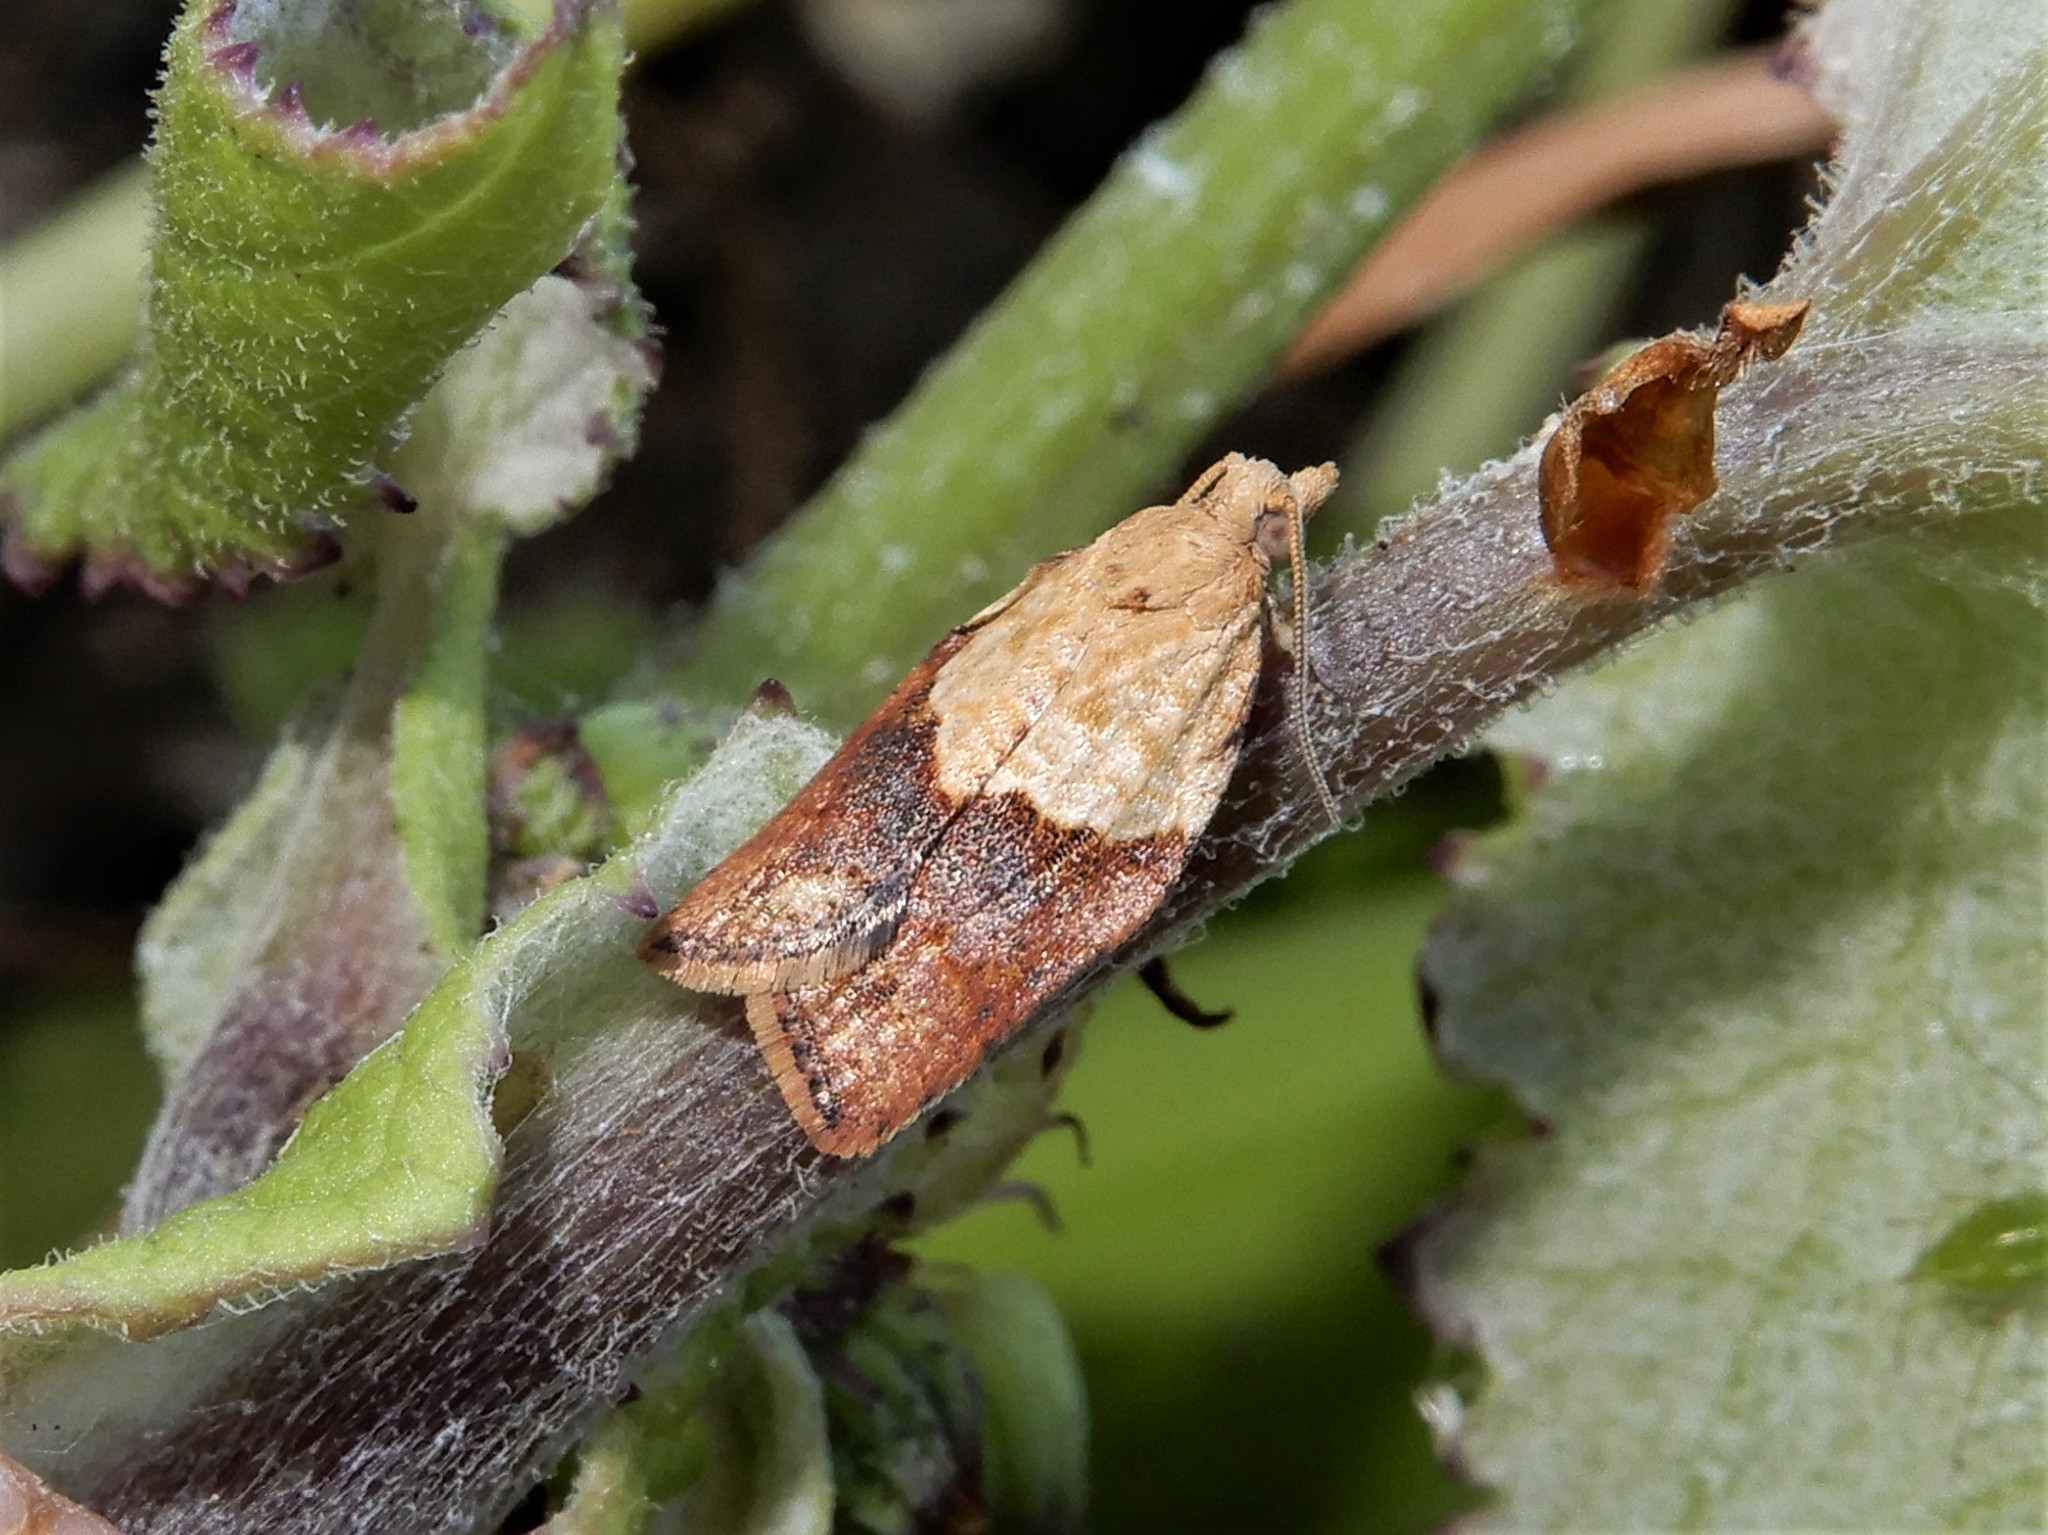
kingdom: Animalia
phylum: Arthropoda
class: Insecta
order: Lepidoptera
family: Tortricidae
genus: Epiphyas
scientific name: Epiphyas postvittana
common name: Light brown apple moth
